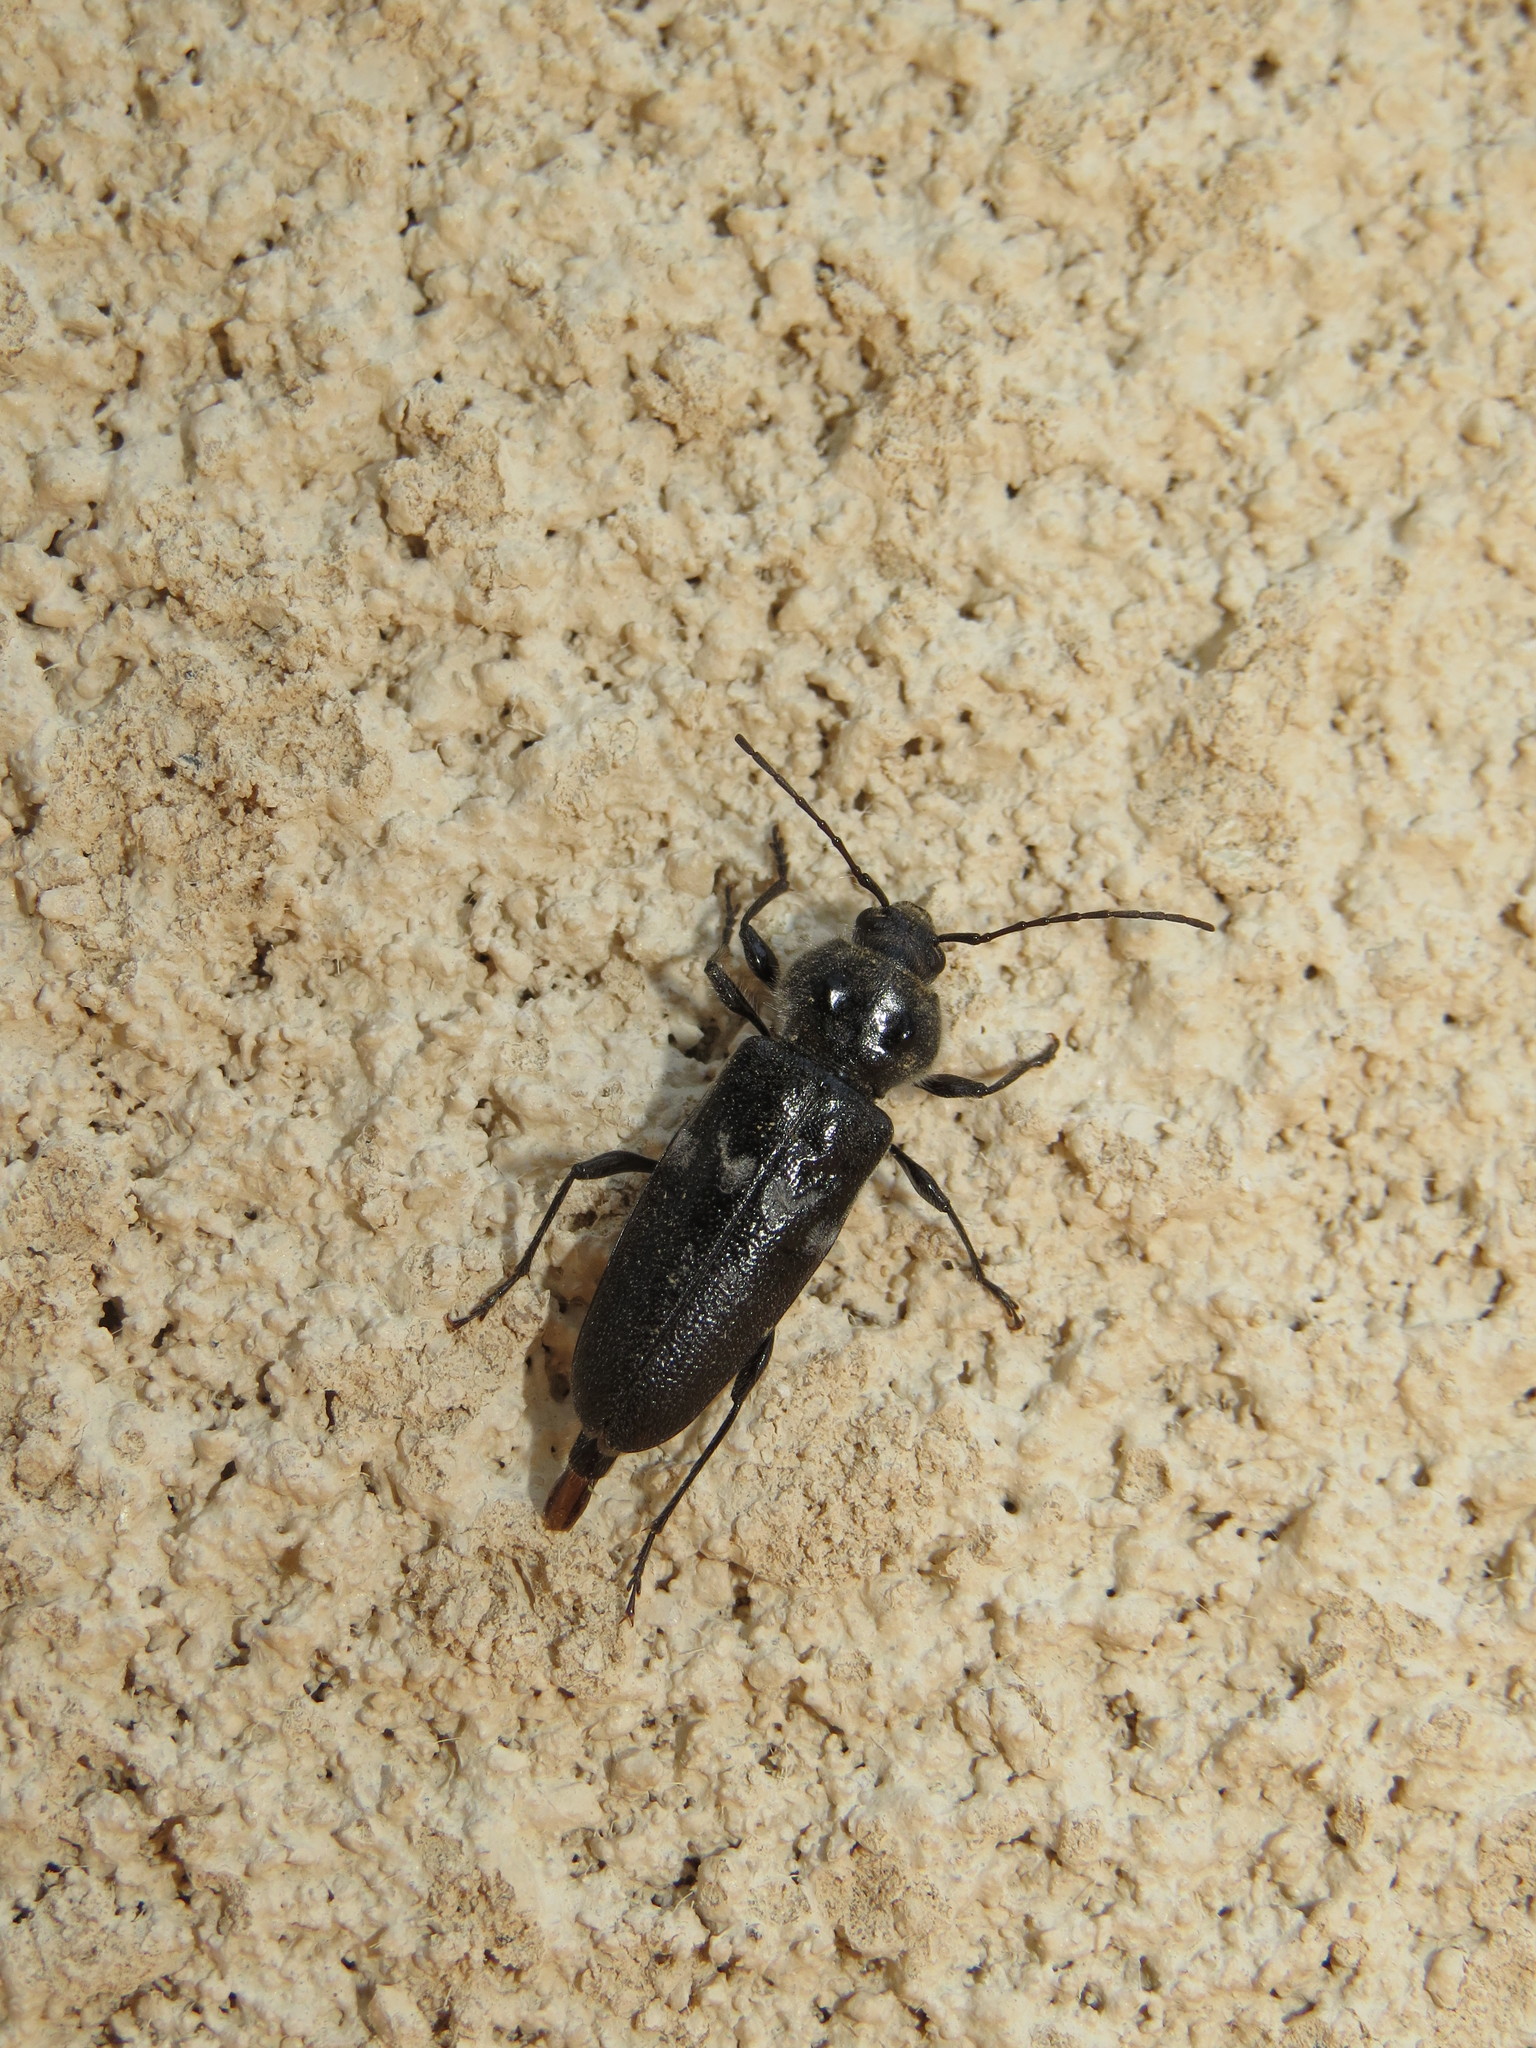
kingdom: Animalia
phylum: Arthropoda
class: Insecta
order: Coleoptera
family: Cerambycidae
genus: Hylotrupes
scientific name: Hylotrupes bajulus
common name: Old house borer
